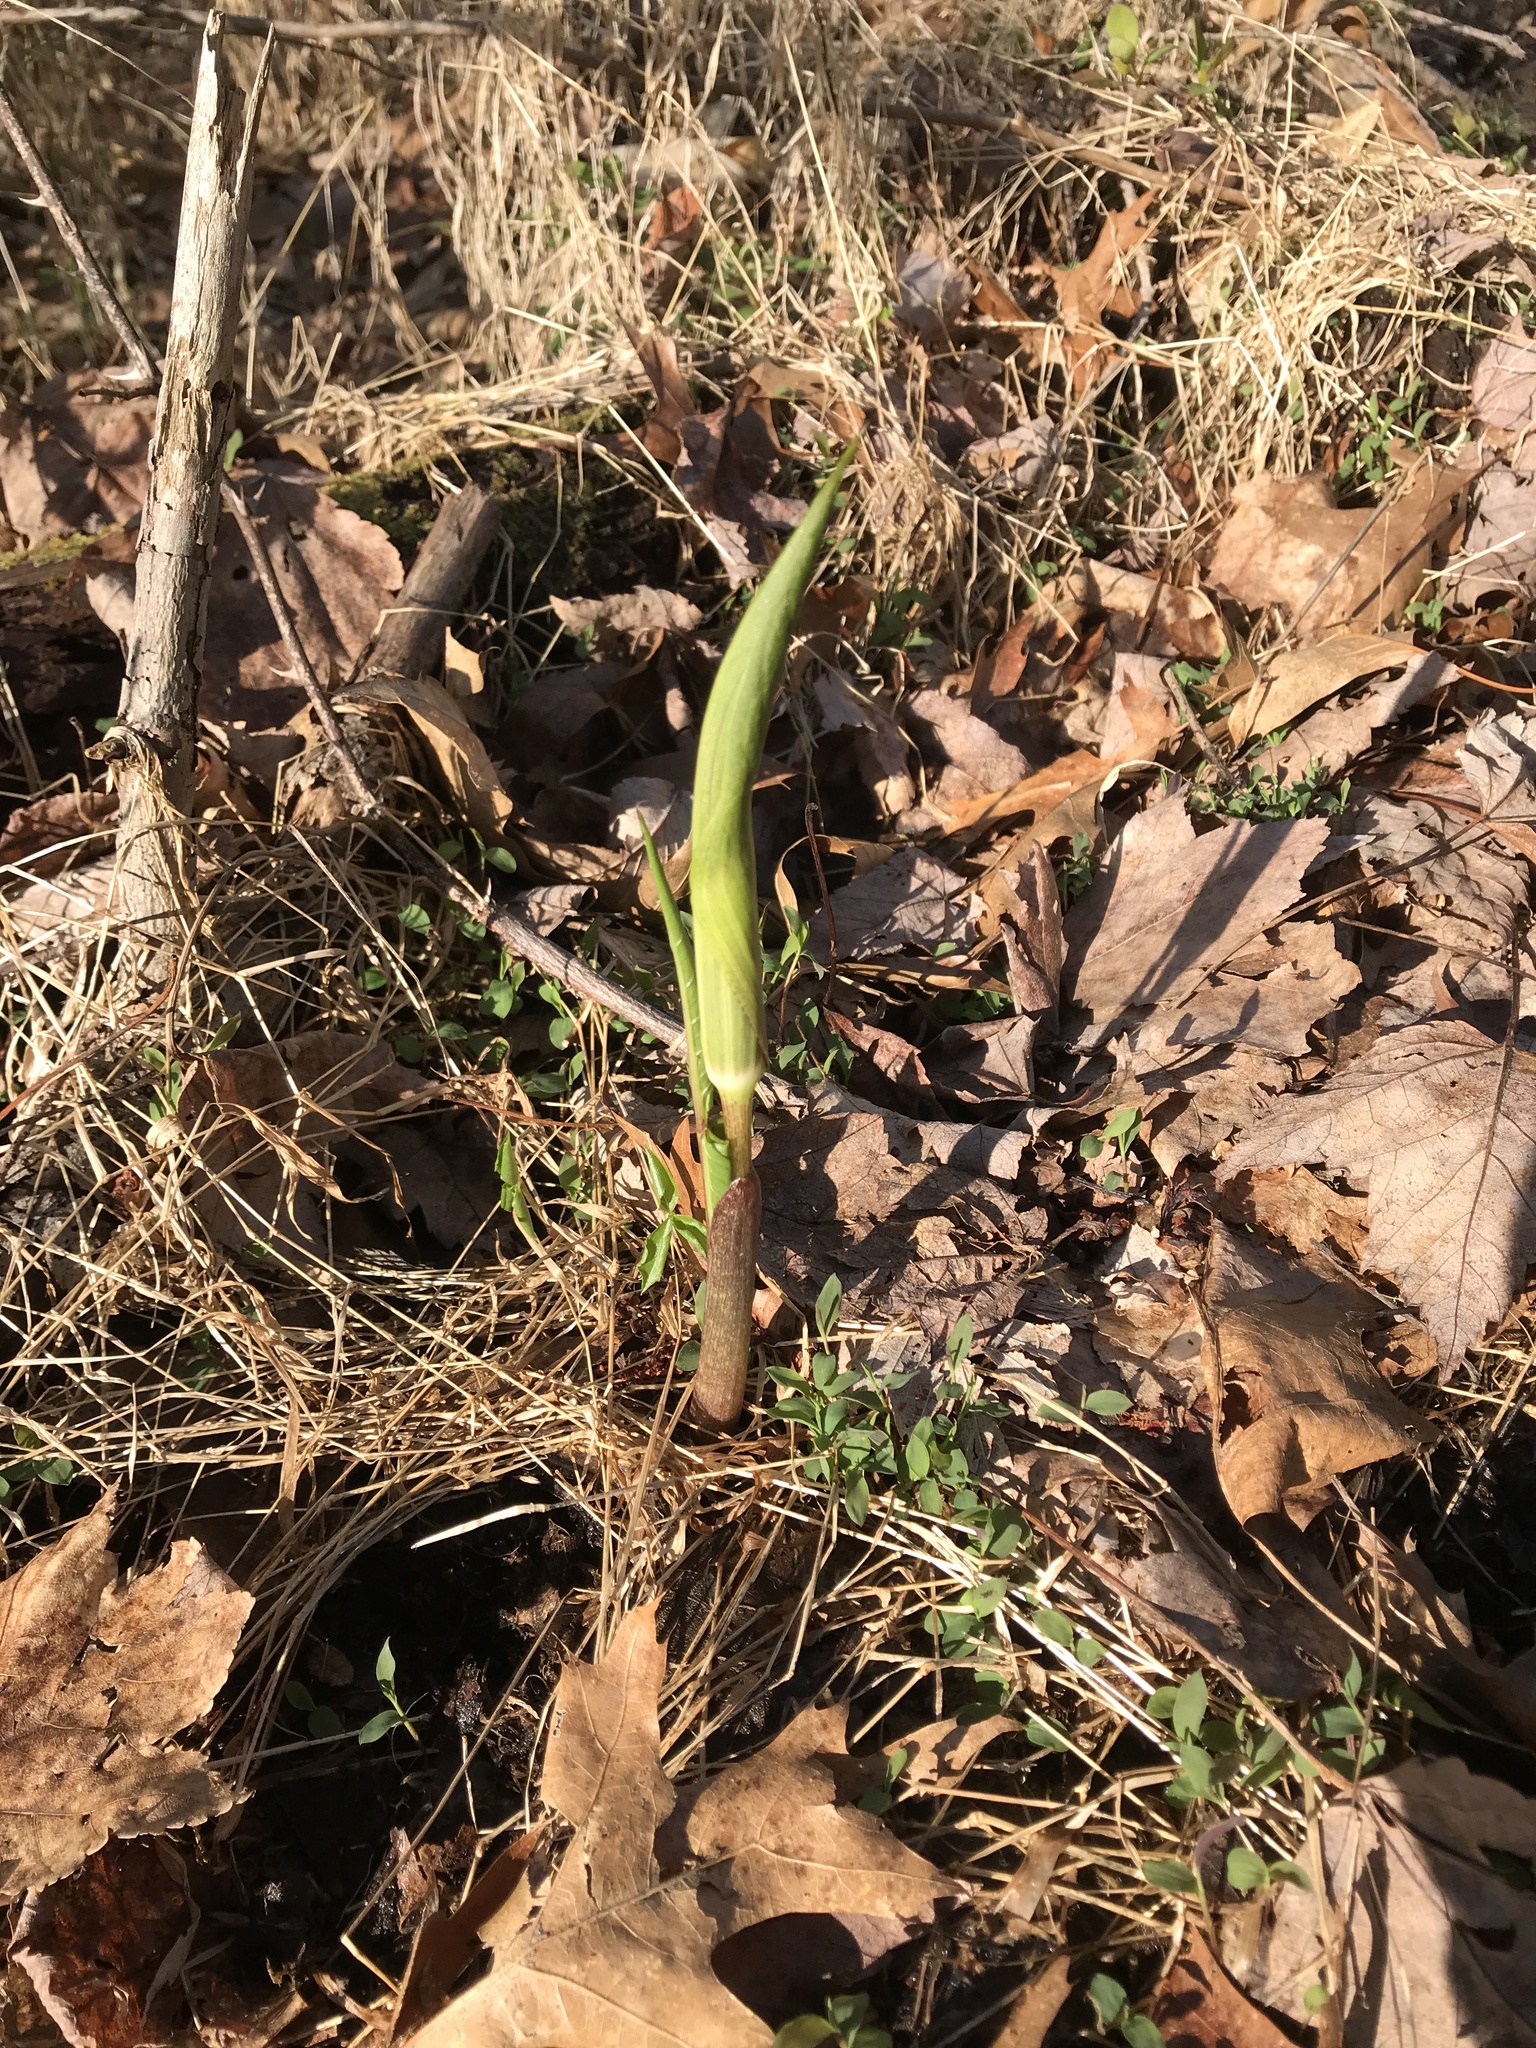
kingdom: Plantae
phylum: Tracheophyta
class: Liliopsida
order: Alismatales
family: Araceae
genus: Arisaema
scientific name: Arisaema triphyllum
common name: Jack-in-the-pulpit
